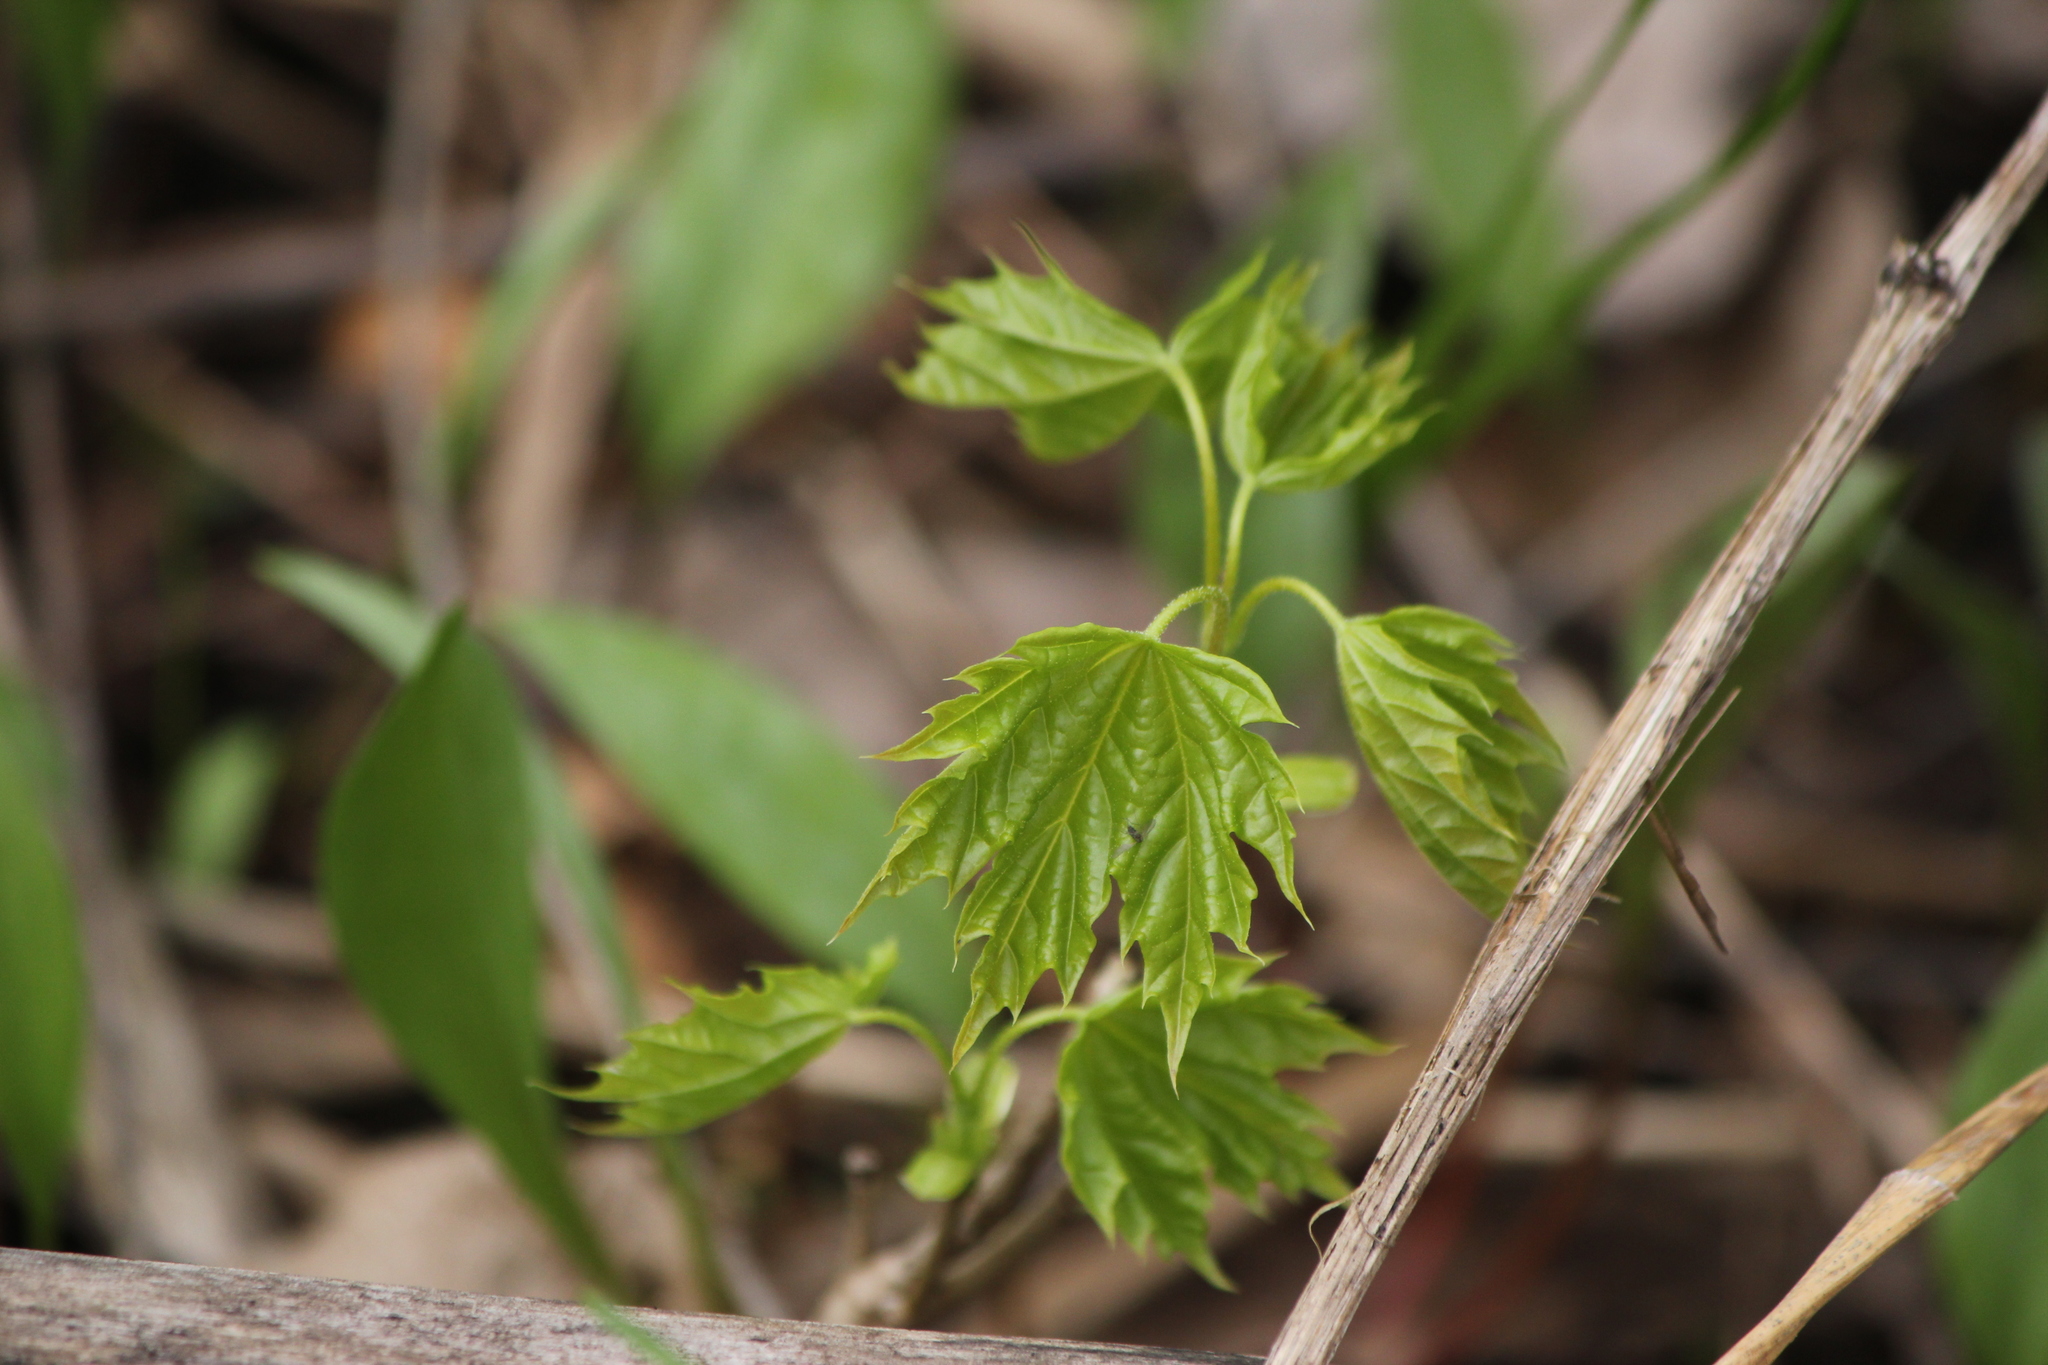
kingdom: Plantae
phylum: Tracheophyta
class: Magnoliopsida
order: Sapindales
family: Sapindaceae
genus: Acer
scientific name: Acer platanoides
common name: Norway maple
